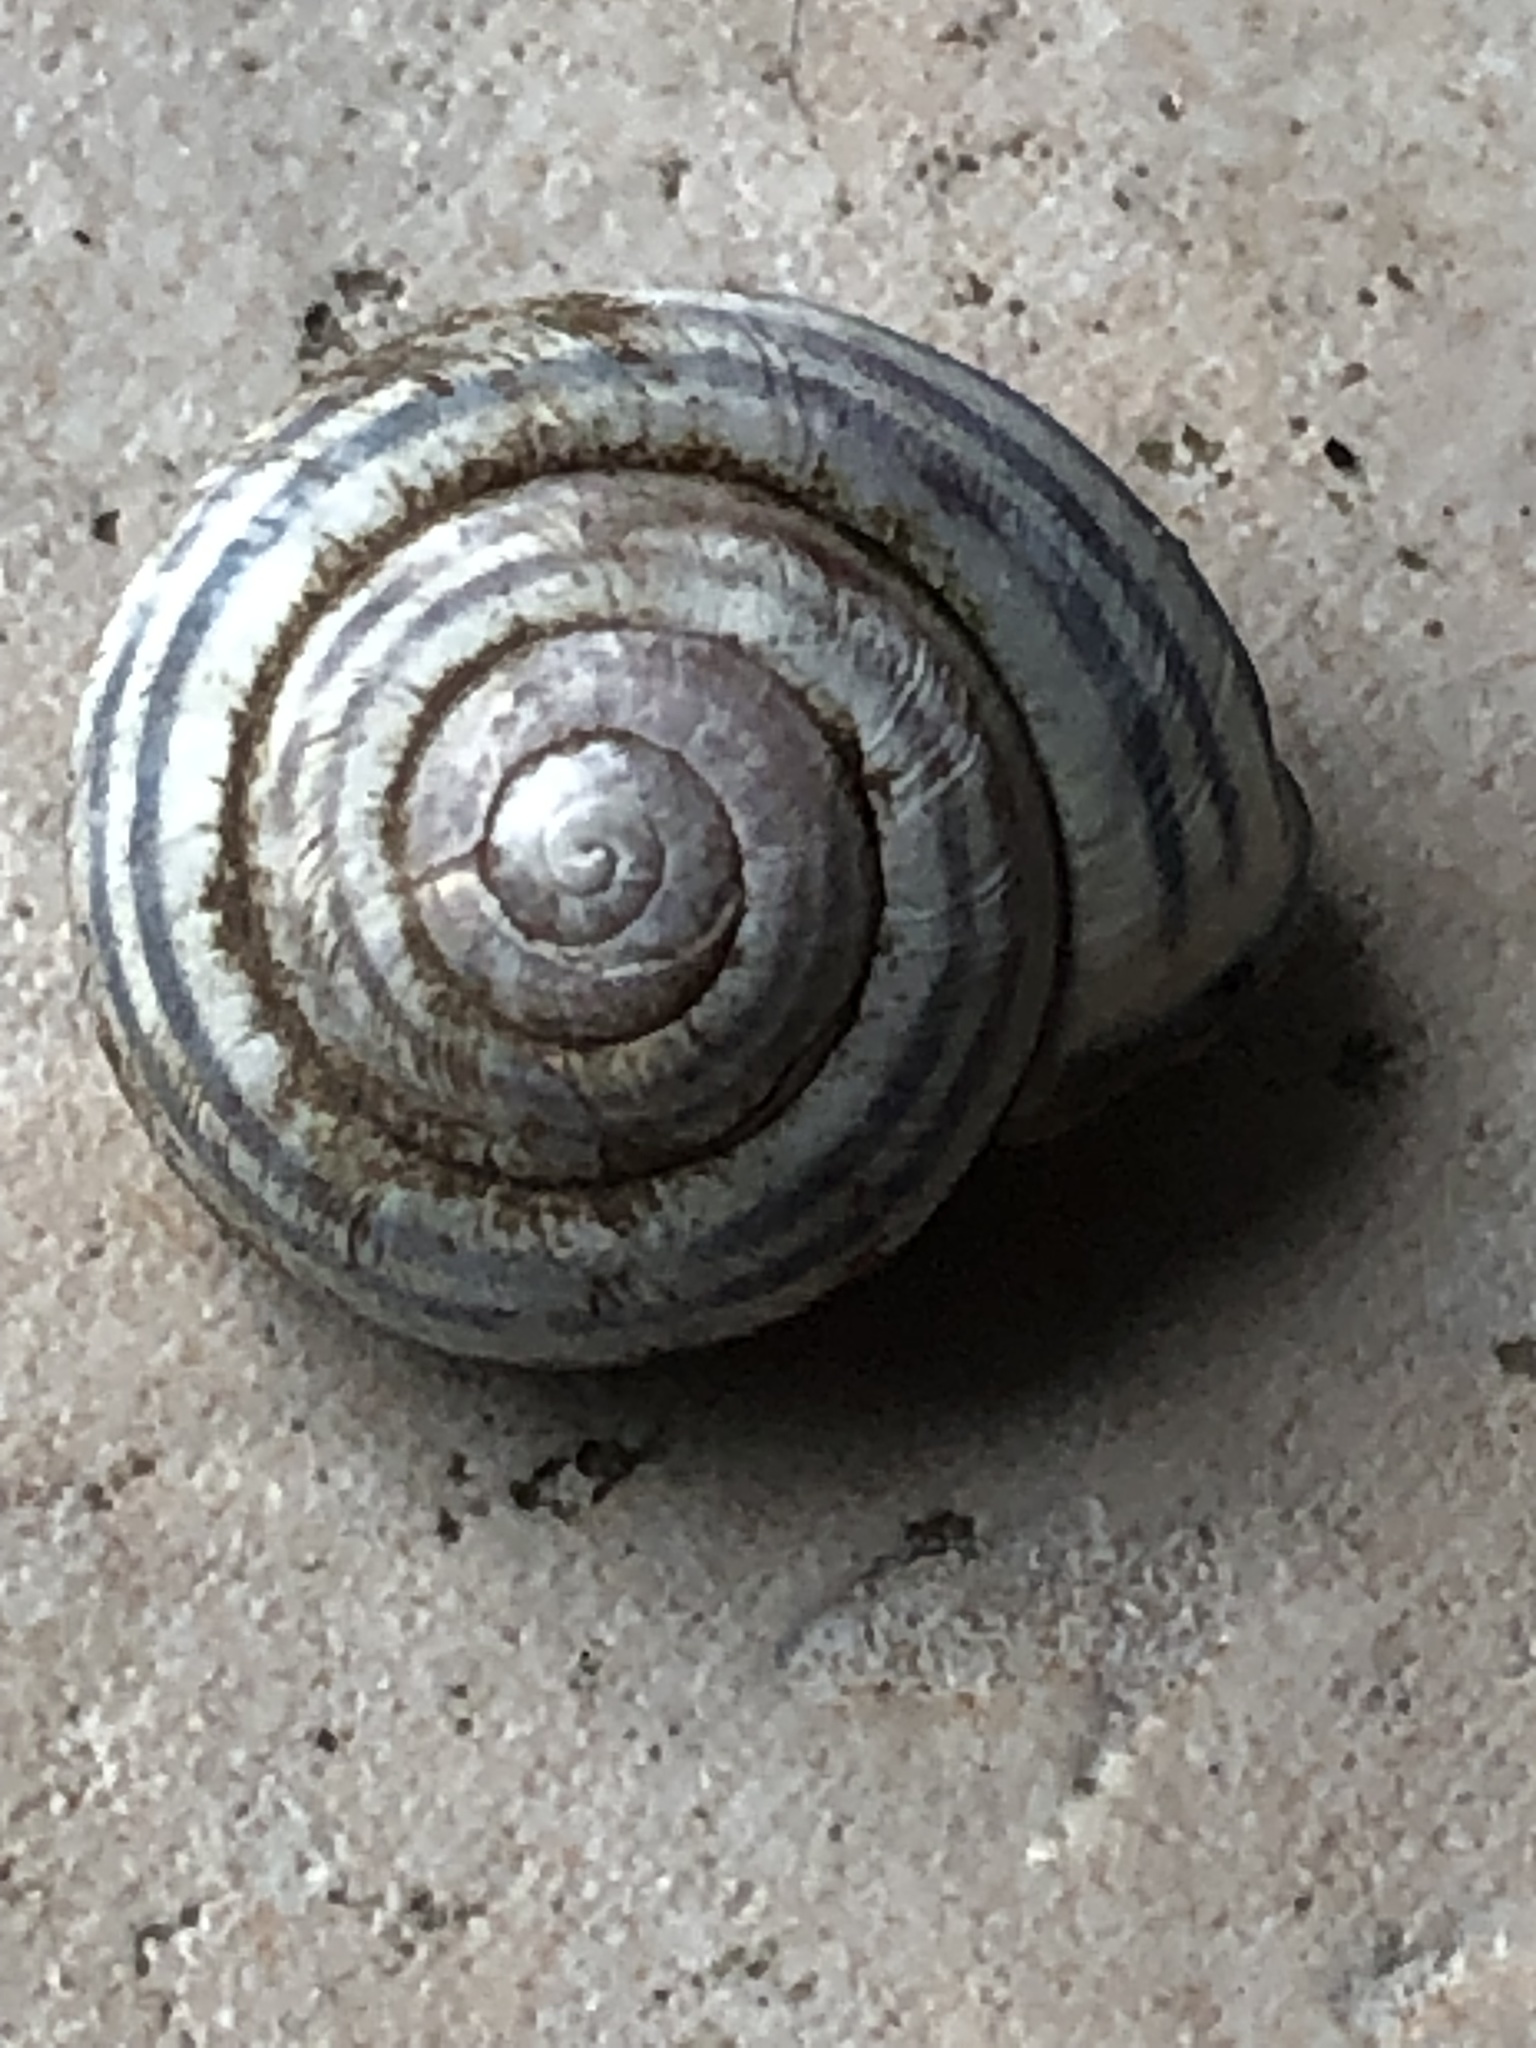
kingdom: Animalia
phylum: Mollusca
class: Gastropoda
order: Stylommatophora
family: Helicidae
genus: Cepaea
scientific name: Cepaea nemoralis
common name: Grovesnail
